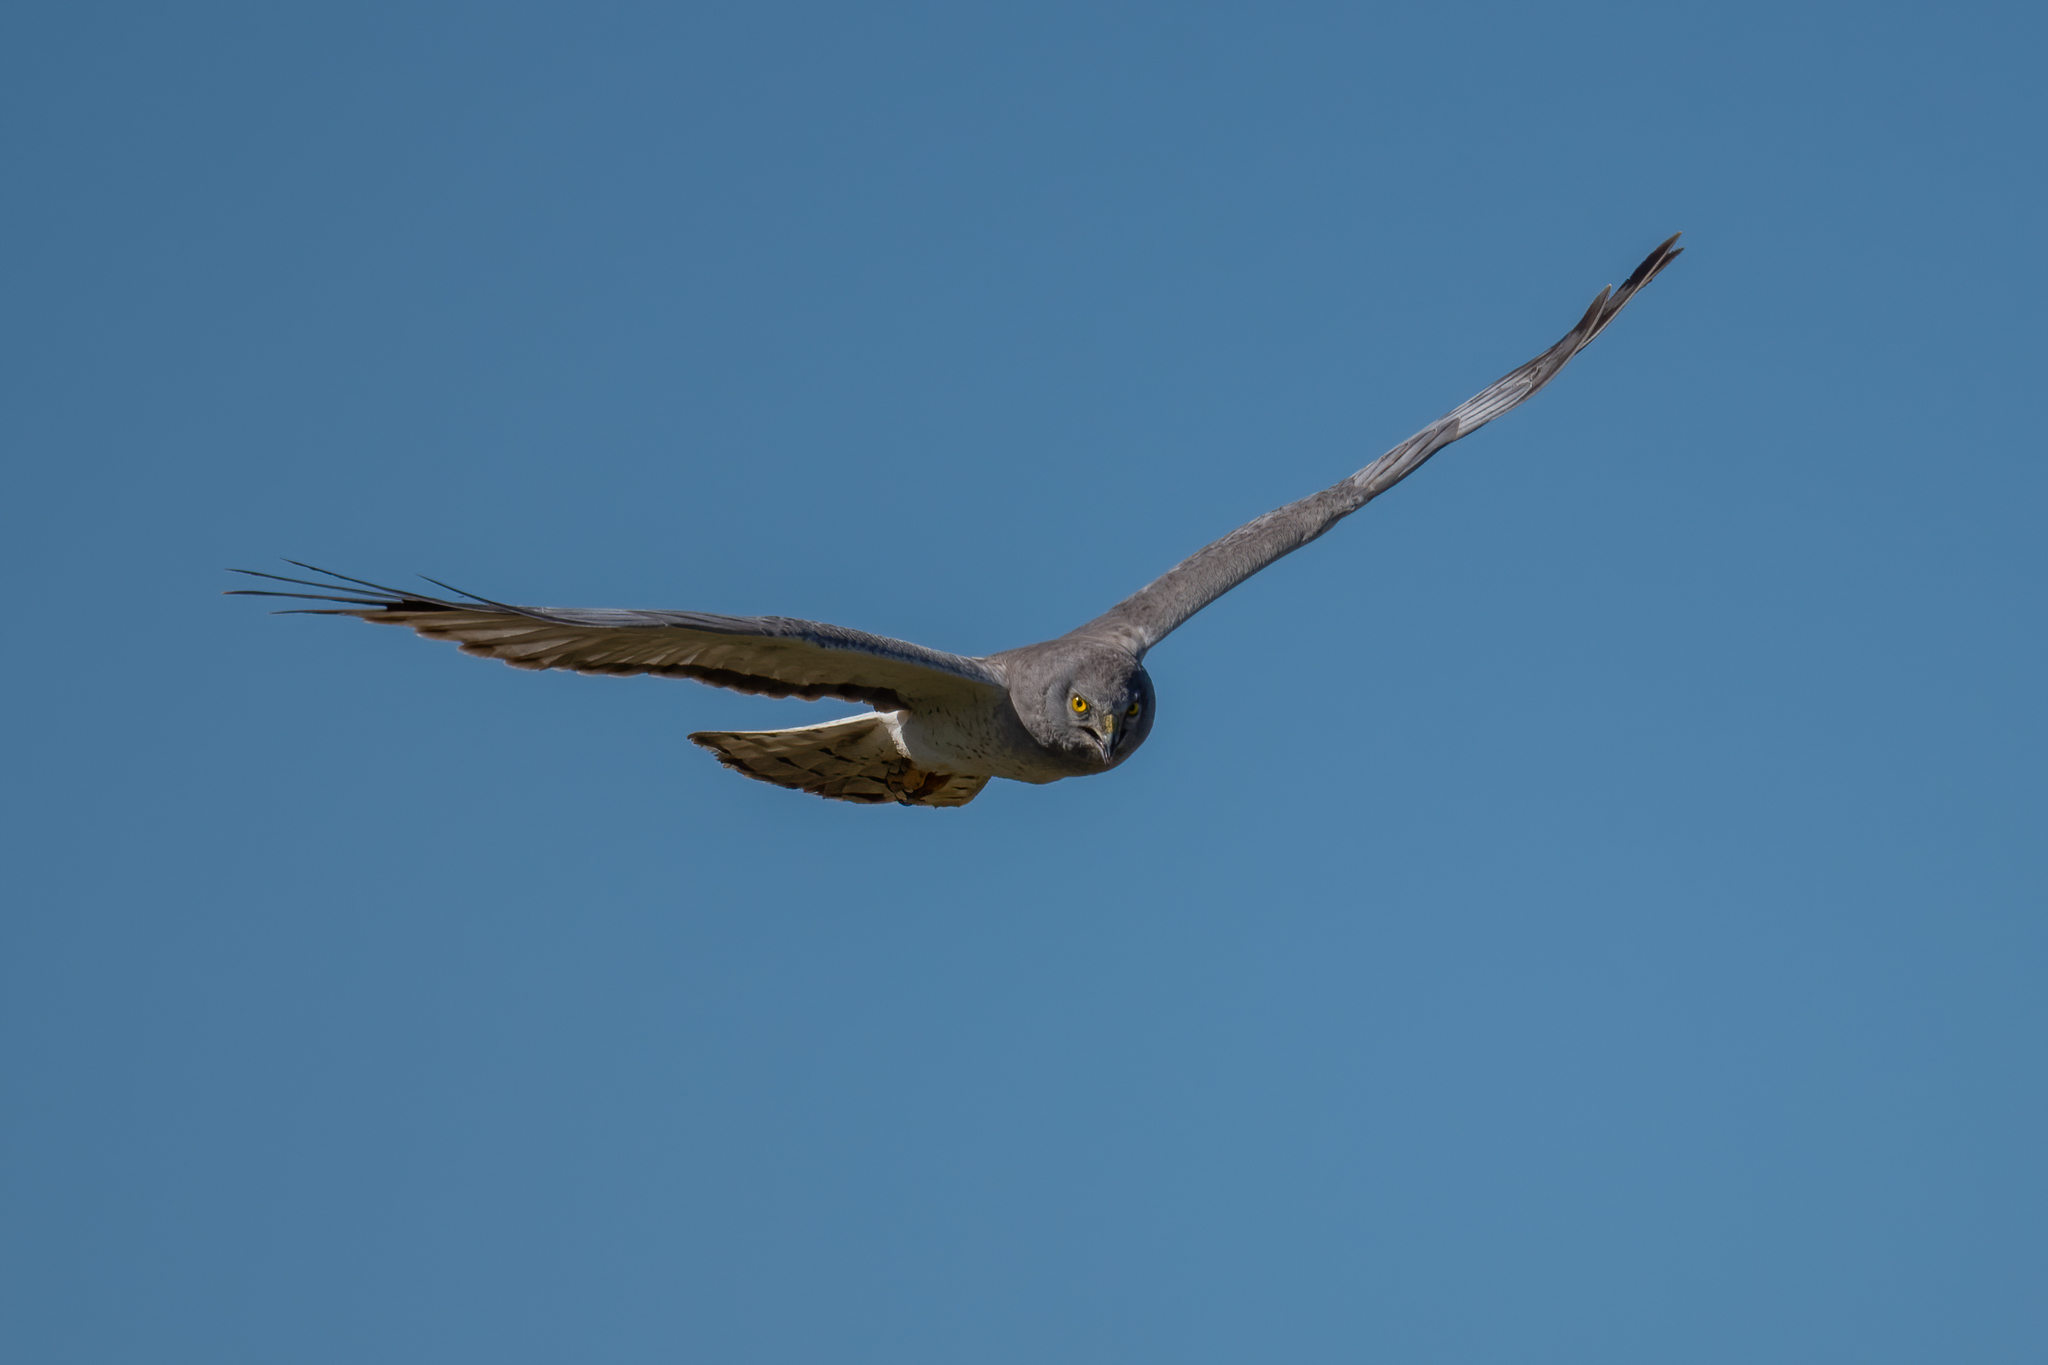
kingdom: Animalia
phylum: Chordata
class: Aves
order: Accipitriformes
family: Accipitridae
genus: Circus
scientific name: Circus cyaneus
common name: Hen harrier
